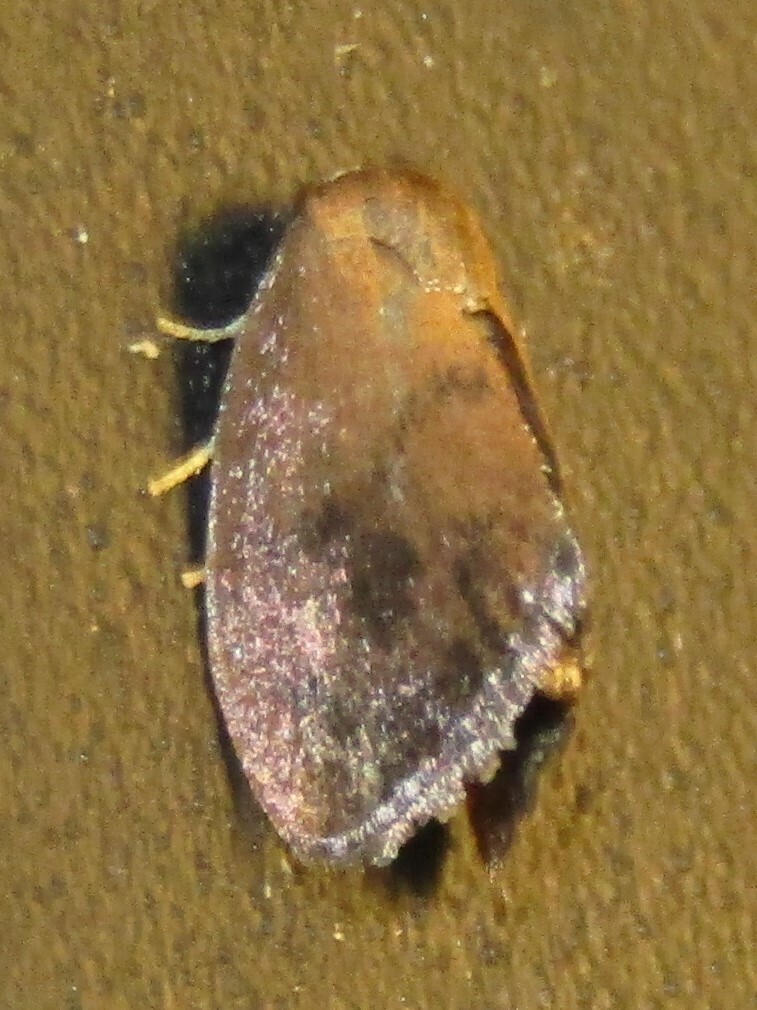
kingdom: Animalia
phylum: Arthropoda
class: Insecta
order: Lepidoptera
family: Limacodidae
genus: Heterogenea
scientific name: Heterogenea shurtleffi
